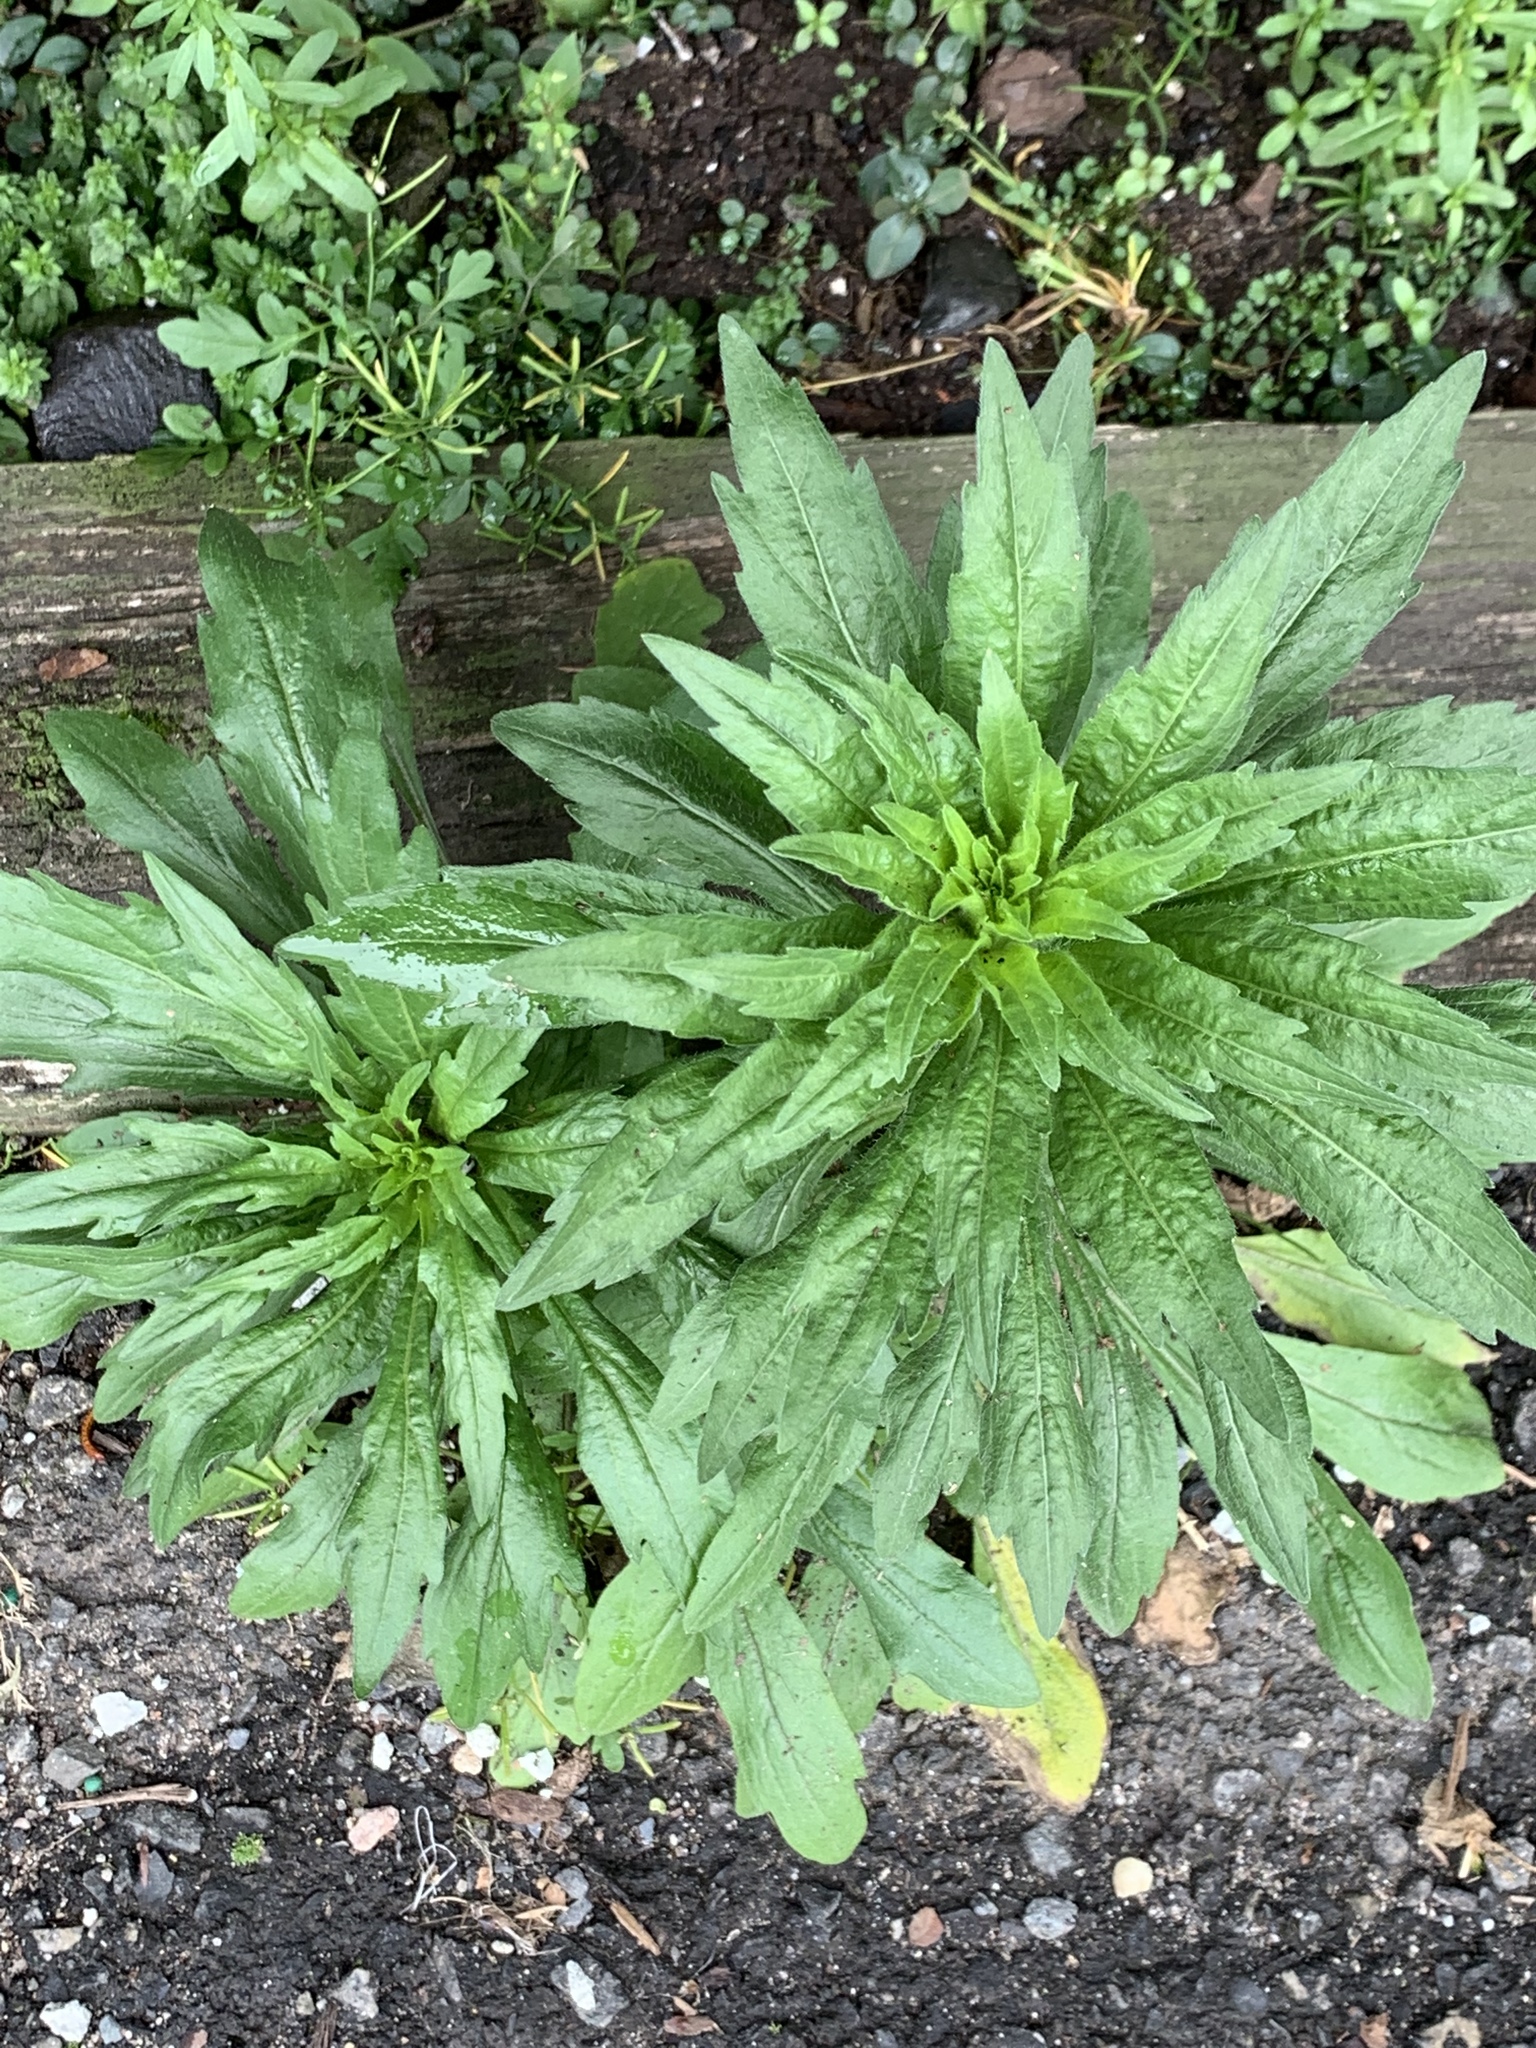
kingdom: Plantae
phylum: Tracheophyta
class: Magnoliopsida
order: Asterales
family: Asteraceae
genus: Erigeron
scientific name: Erigeron canadensis
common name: Canadian fleabane
